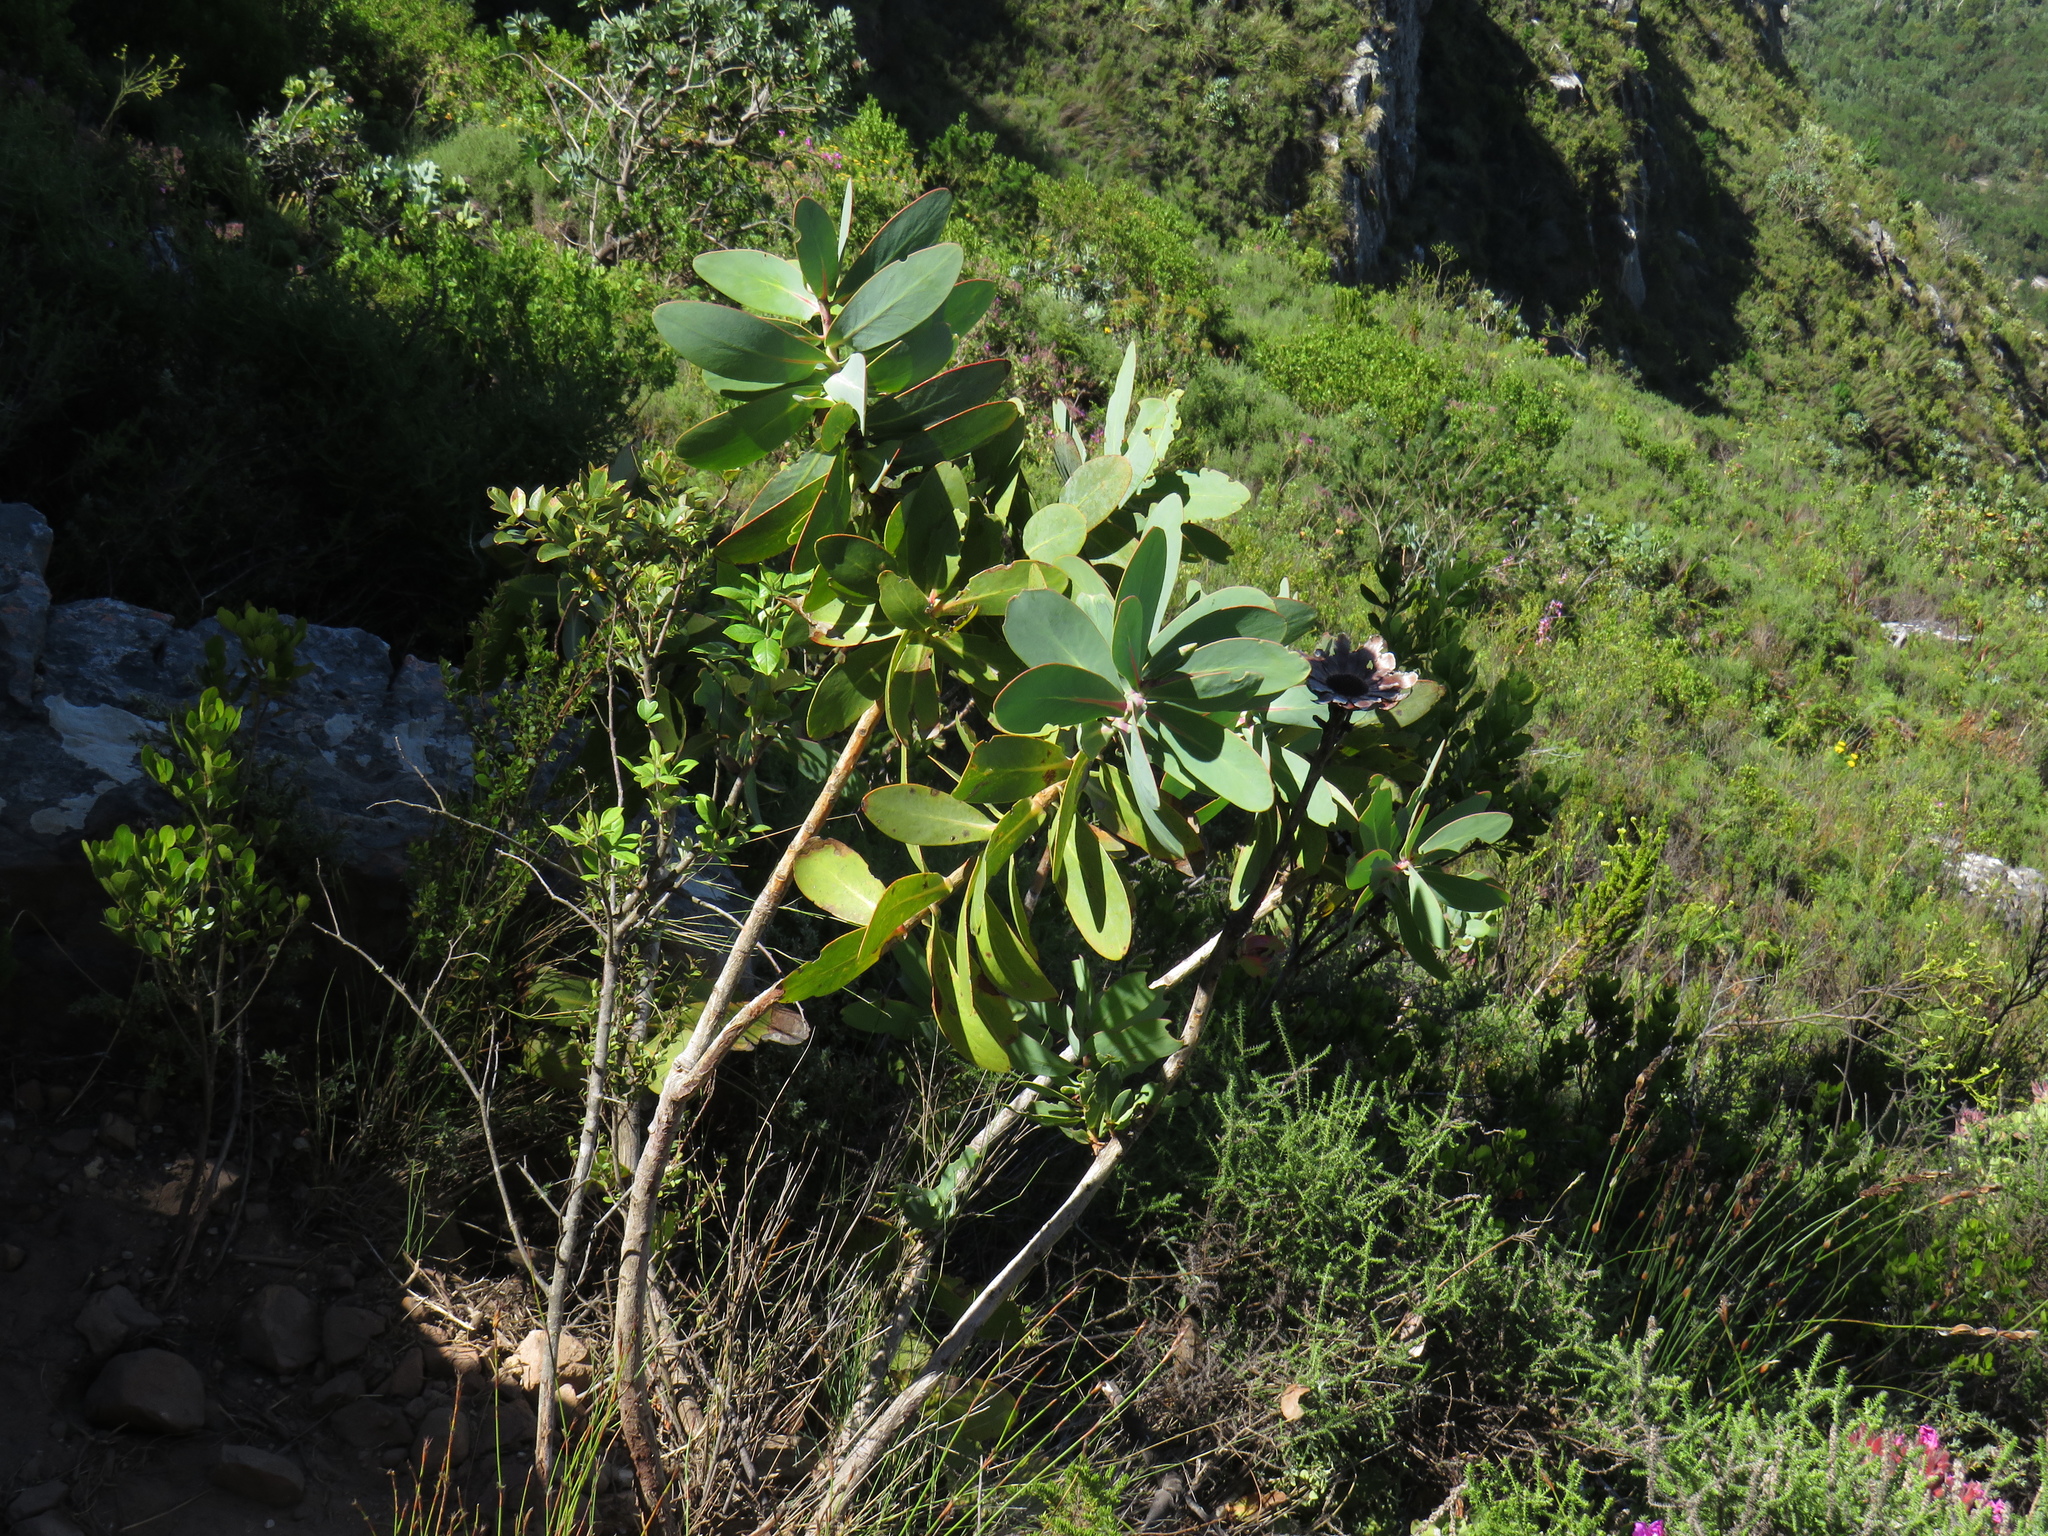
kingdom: Plantae
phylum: Tracheophyta
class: Magnoliopsida
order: Proteales
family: Proteaceae
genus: Protea
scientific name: Protea nitida
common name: Tree protea
